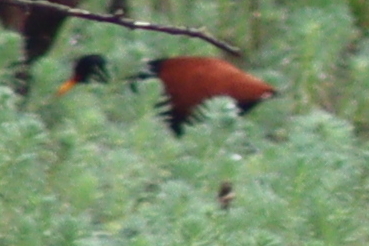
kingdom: Animalia
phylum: Chordata
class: Aves
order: Charadriiformes
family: Jacanidae
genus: Jacana
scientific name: Jacana jacana
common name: Wattled jacana
